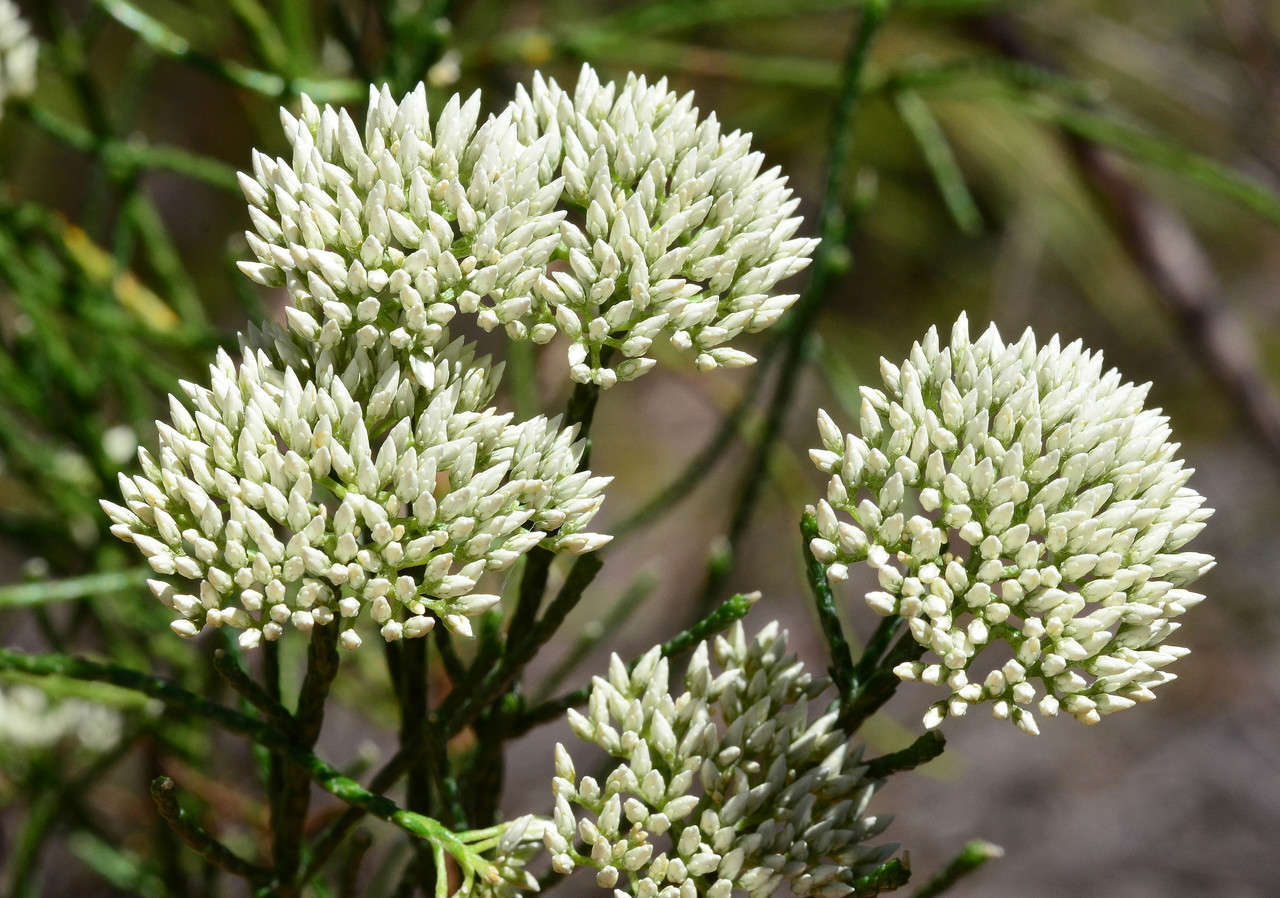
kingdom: Plantae
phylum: Tracheophyta
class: Magnoliopsida
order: Asterales
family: Asteraceae
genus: Haeckeria
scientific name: Haeckeria pholidota
